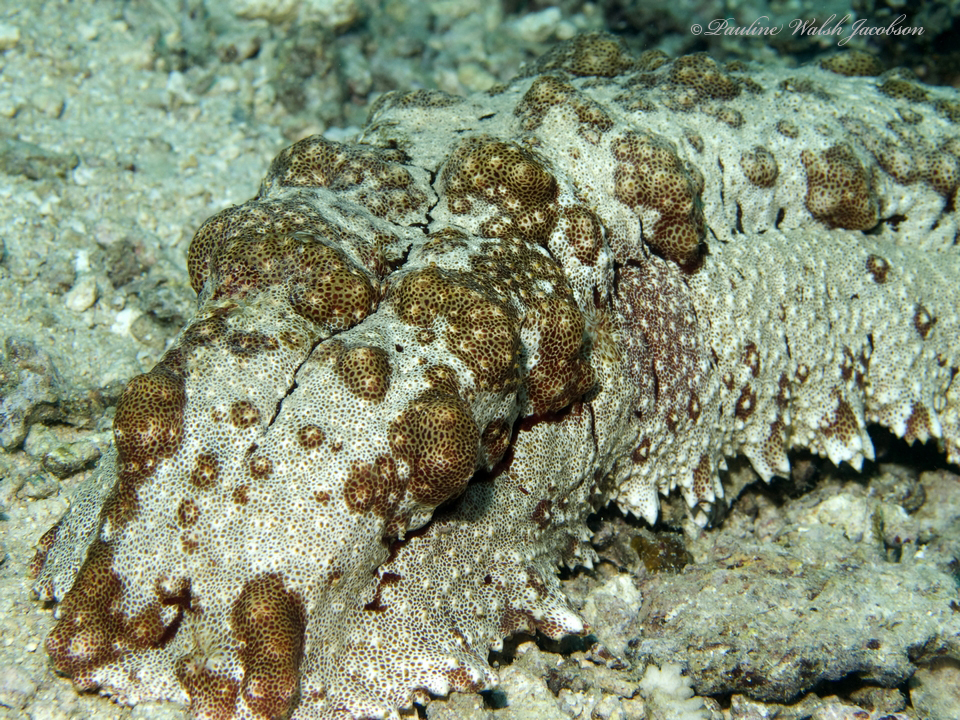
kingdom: Animalia
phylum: Echinodermata
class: Holothuroidea
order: Synallactida
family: Stichopodidae
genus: Thelenota
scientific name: Thelenota anax
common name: Amberfish
